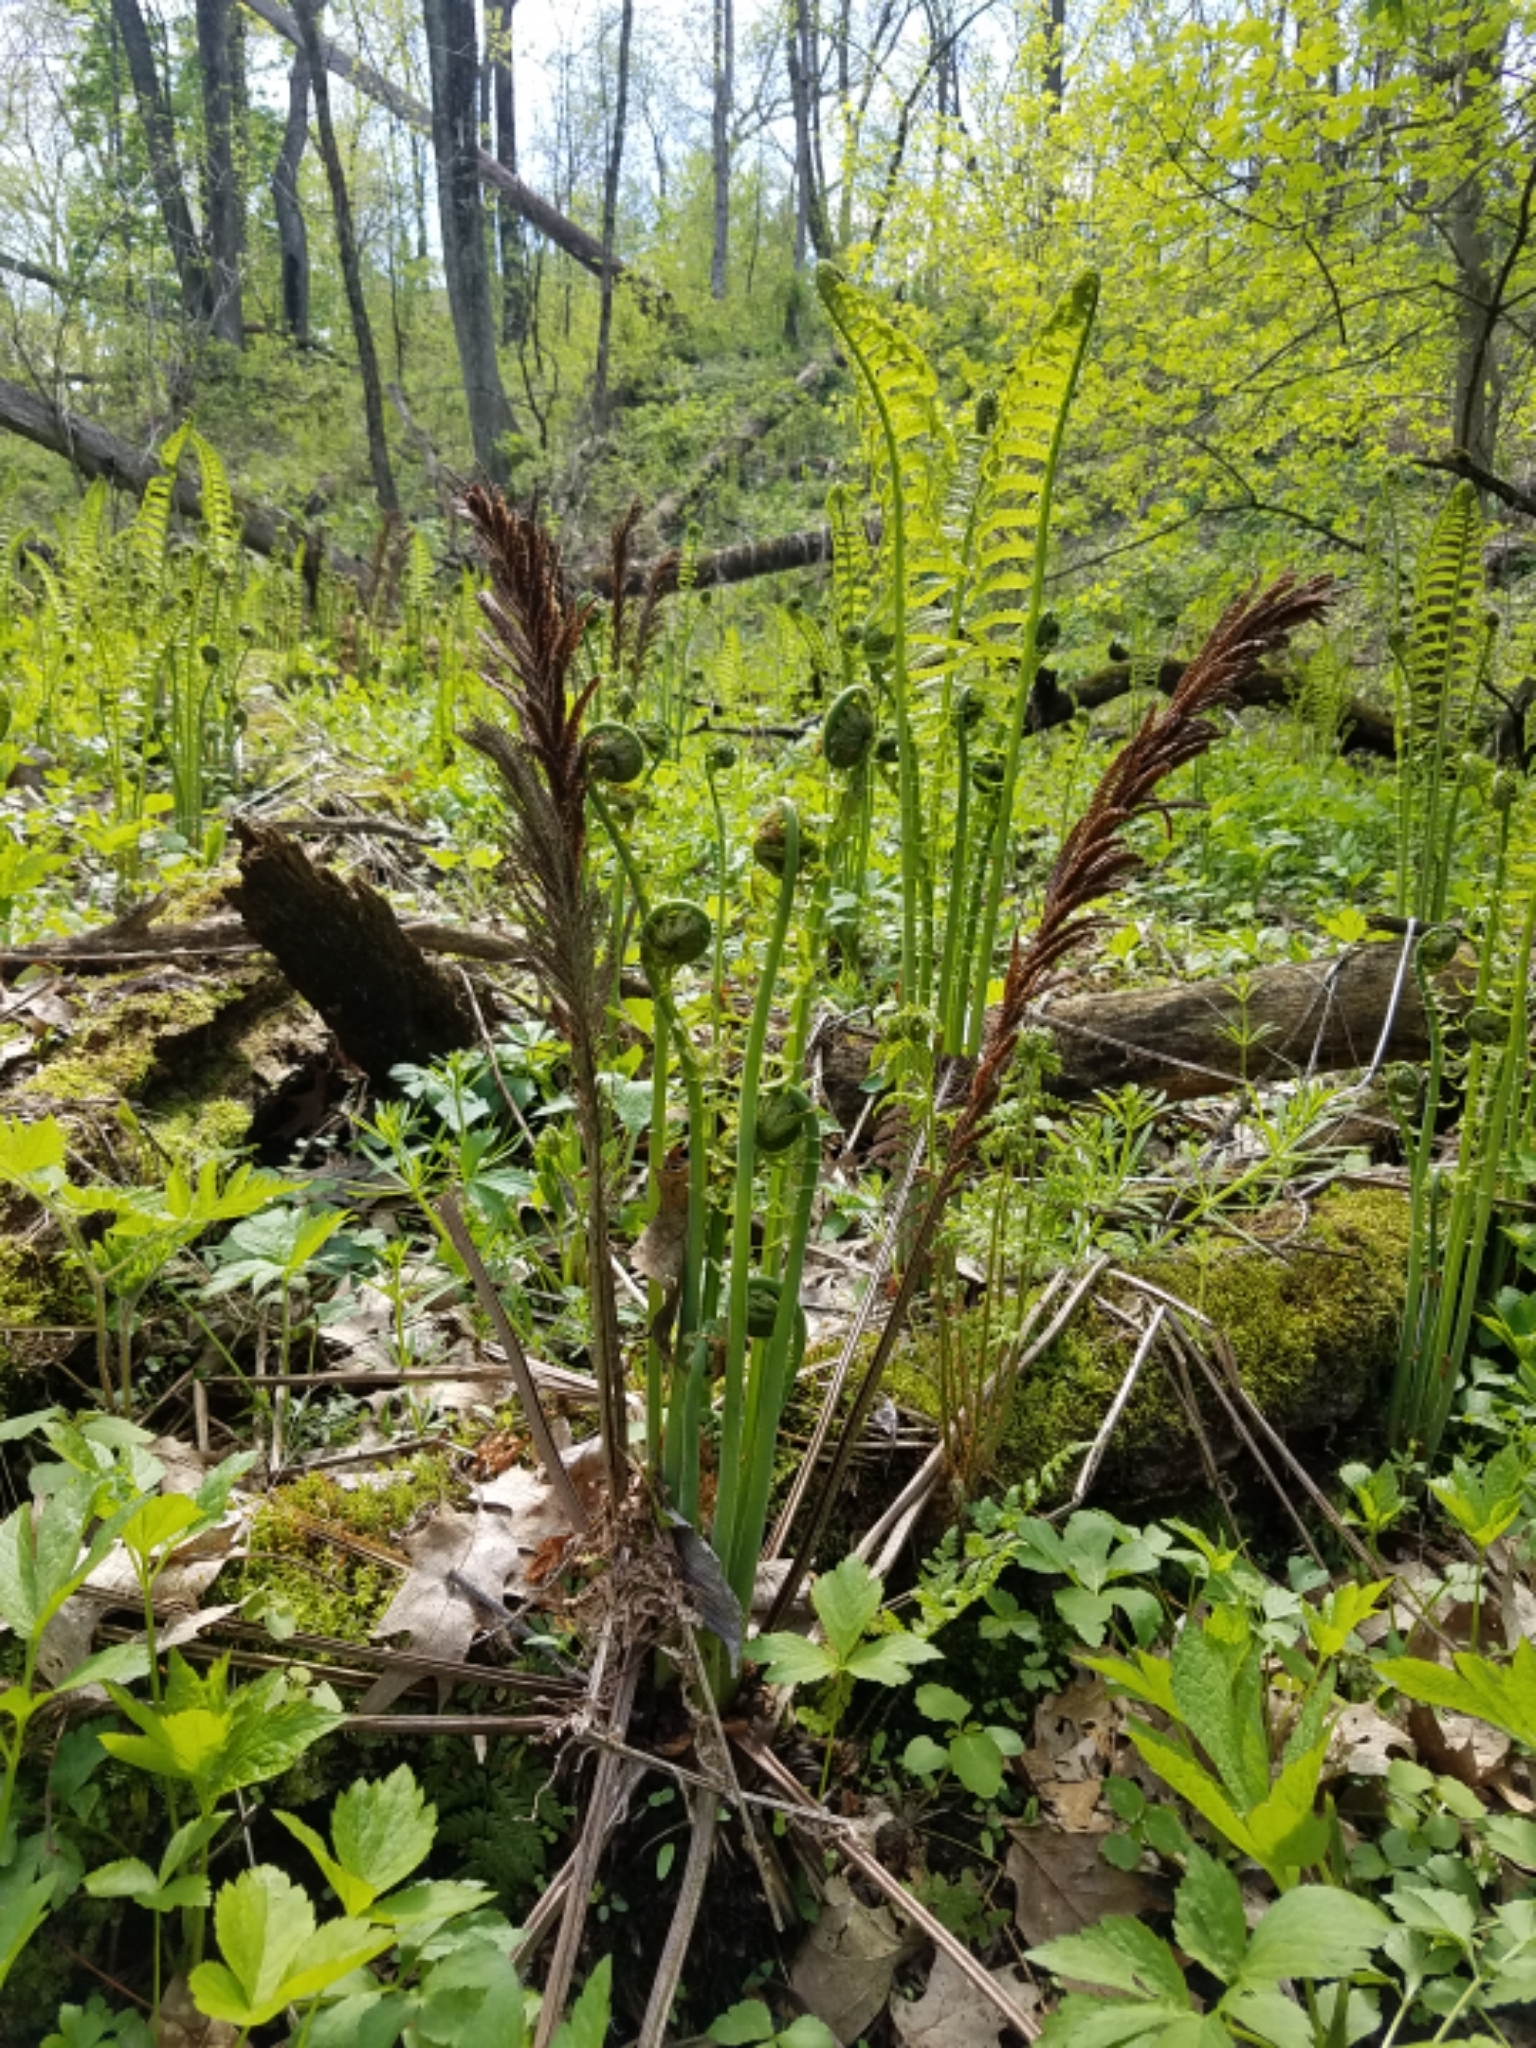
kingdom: Plantae
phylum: Tracheophyta
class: Polypodiopsida
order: Polypodiales
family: Onocleaceae
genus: Matteuccia
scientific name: Matteuccia struthiopteris
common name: Ostrich fern
